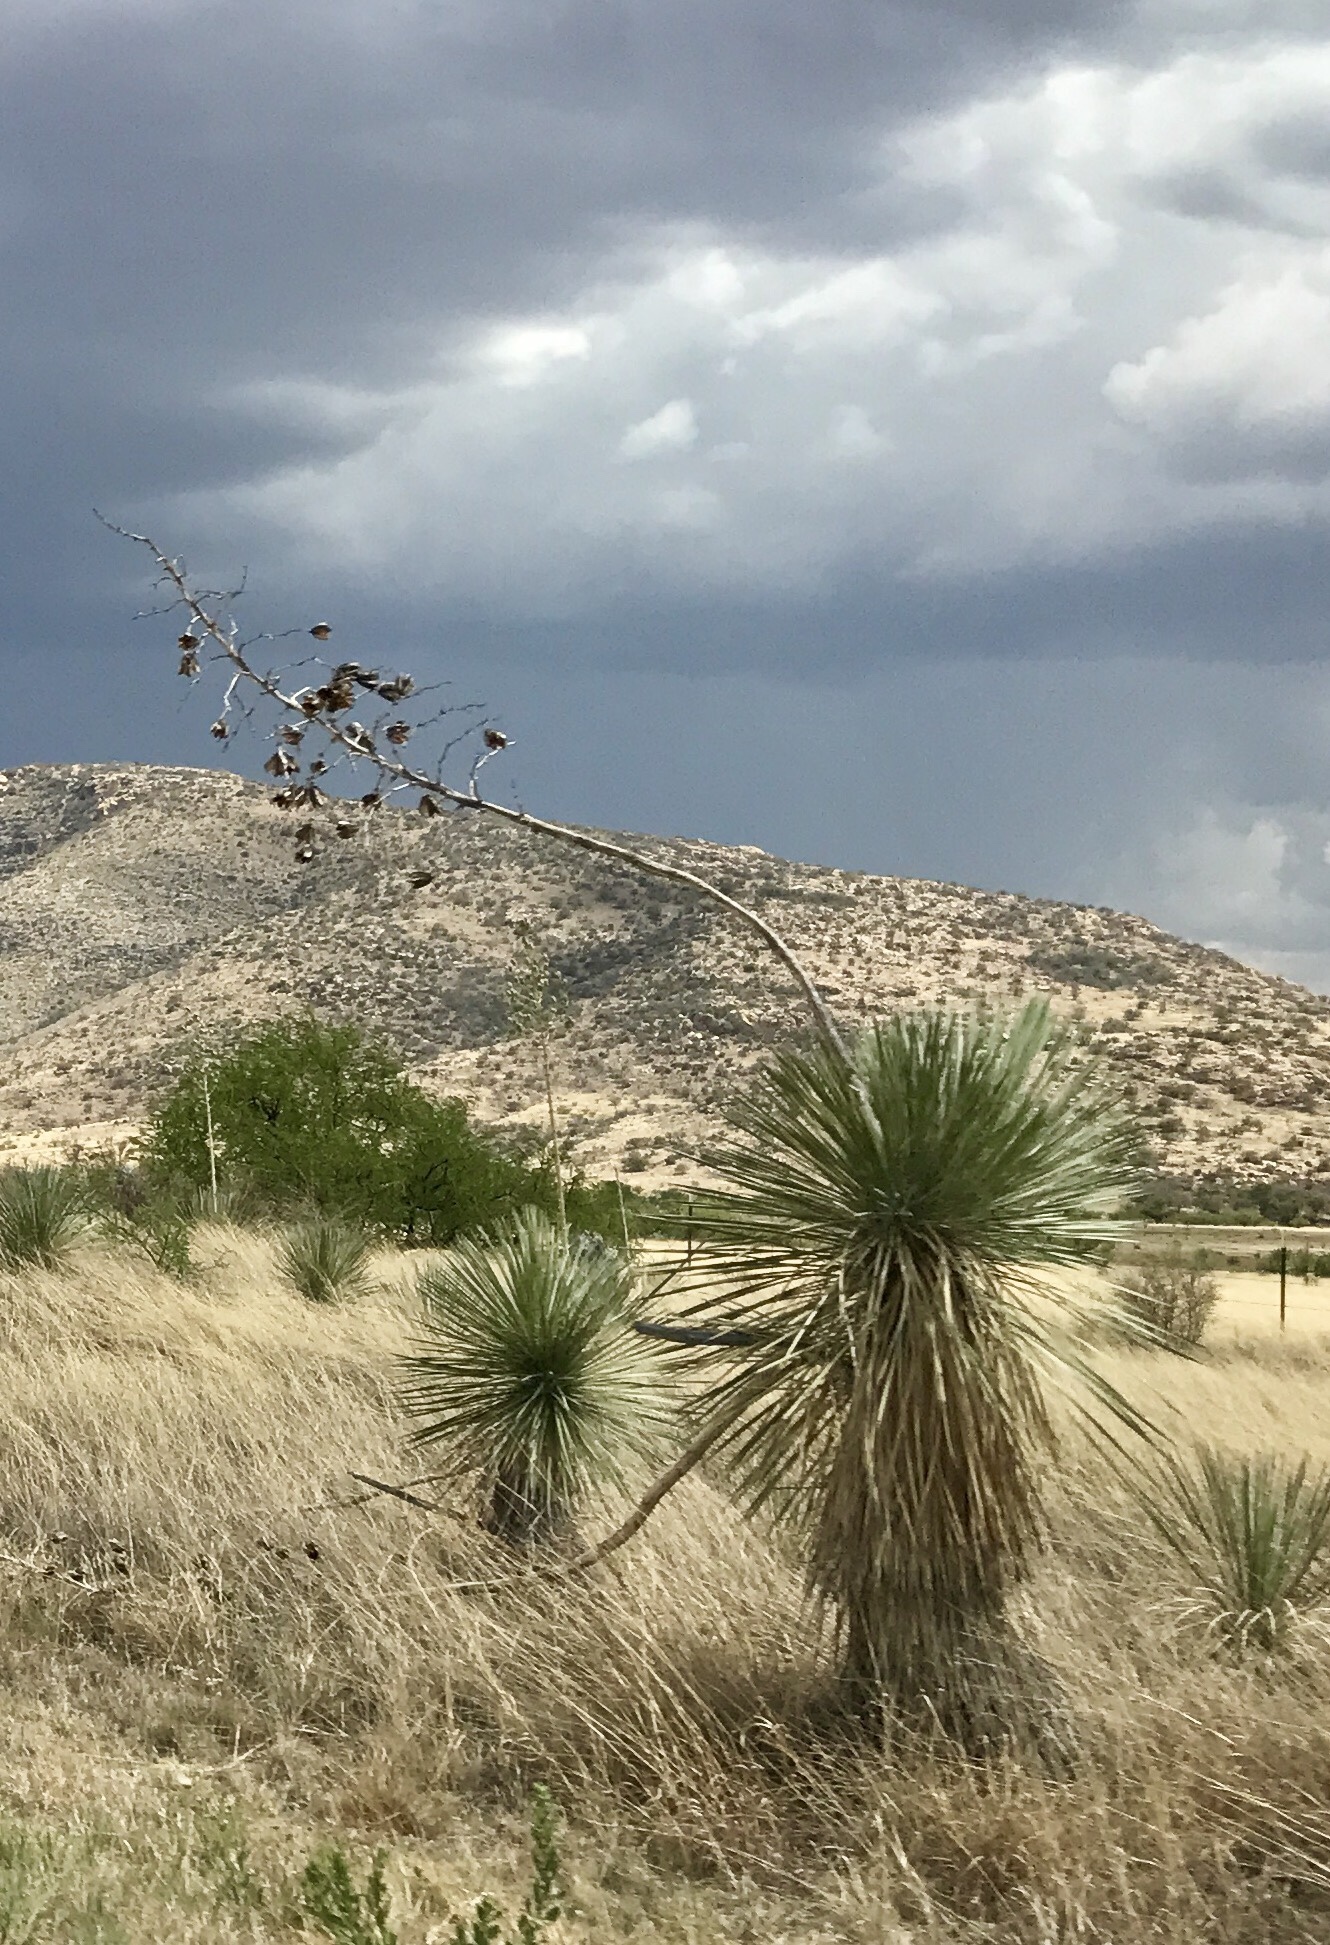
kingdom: Plantae
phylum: Tracheophyta
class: Liliopsida
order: Asparagales
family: Asparagaceae
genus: Yucca
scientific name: Yucca elata
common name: Palmella
